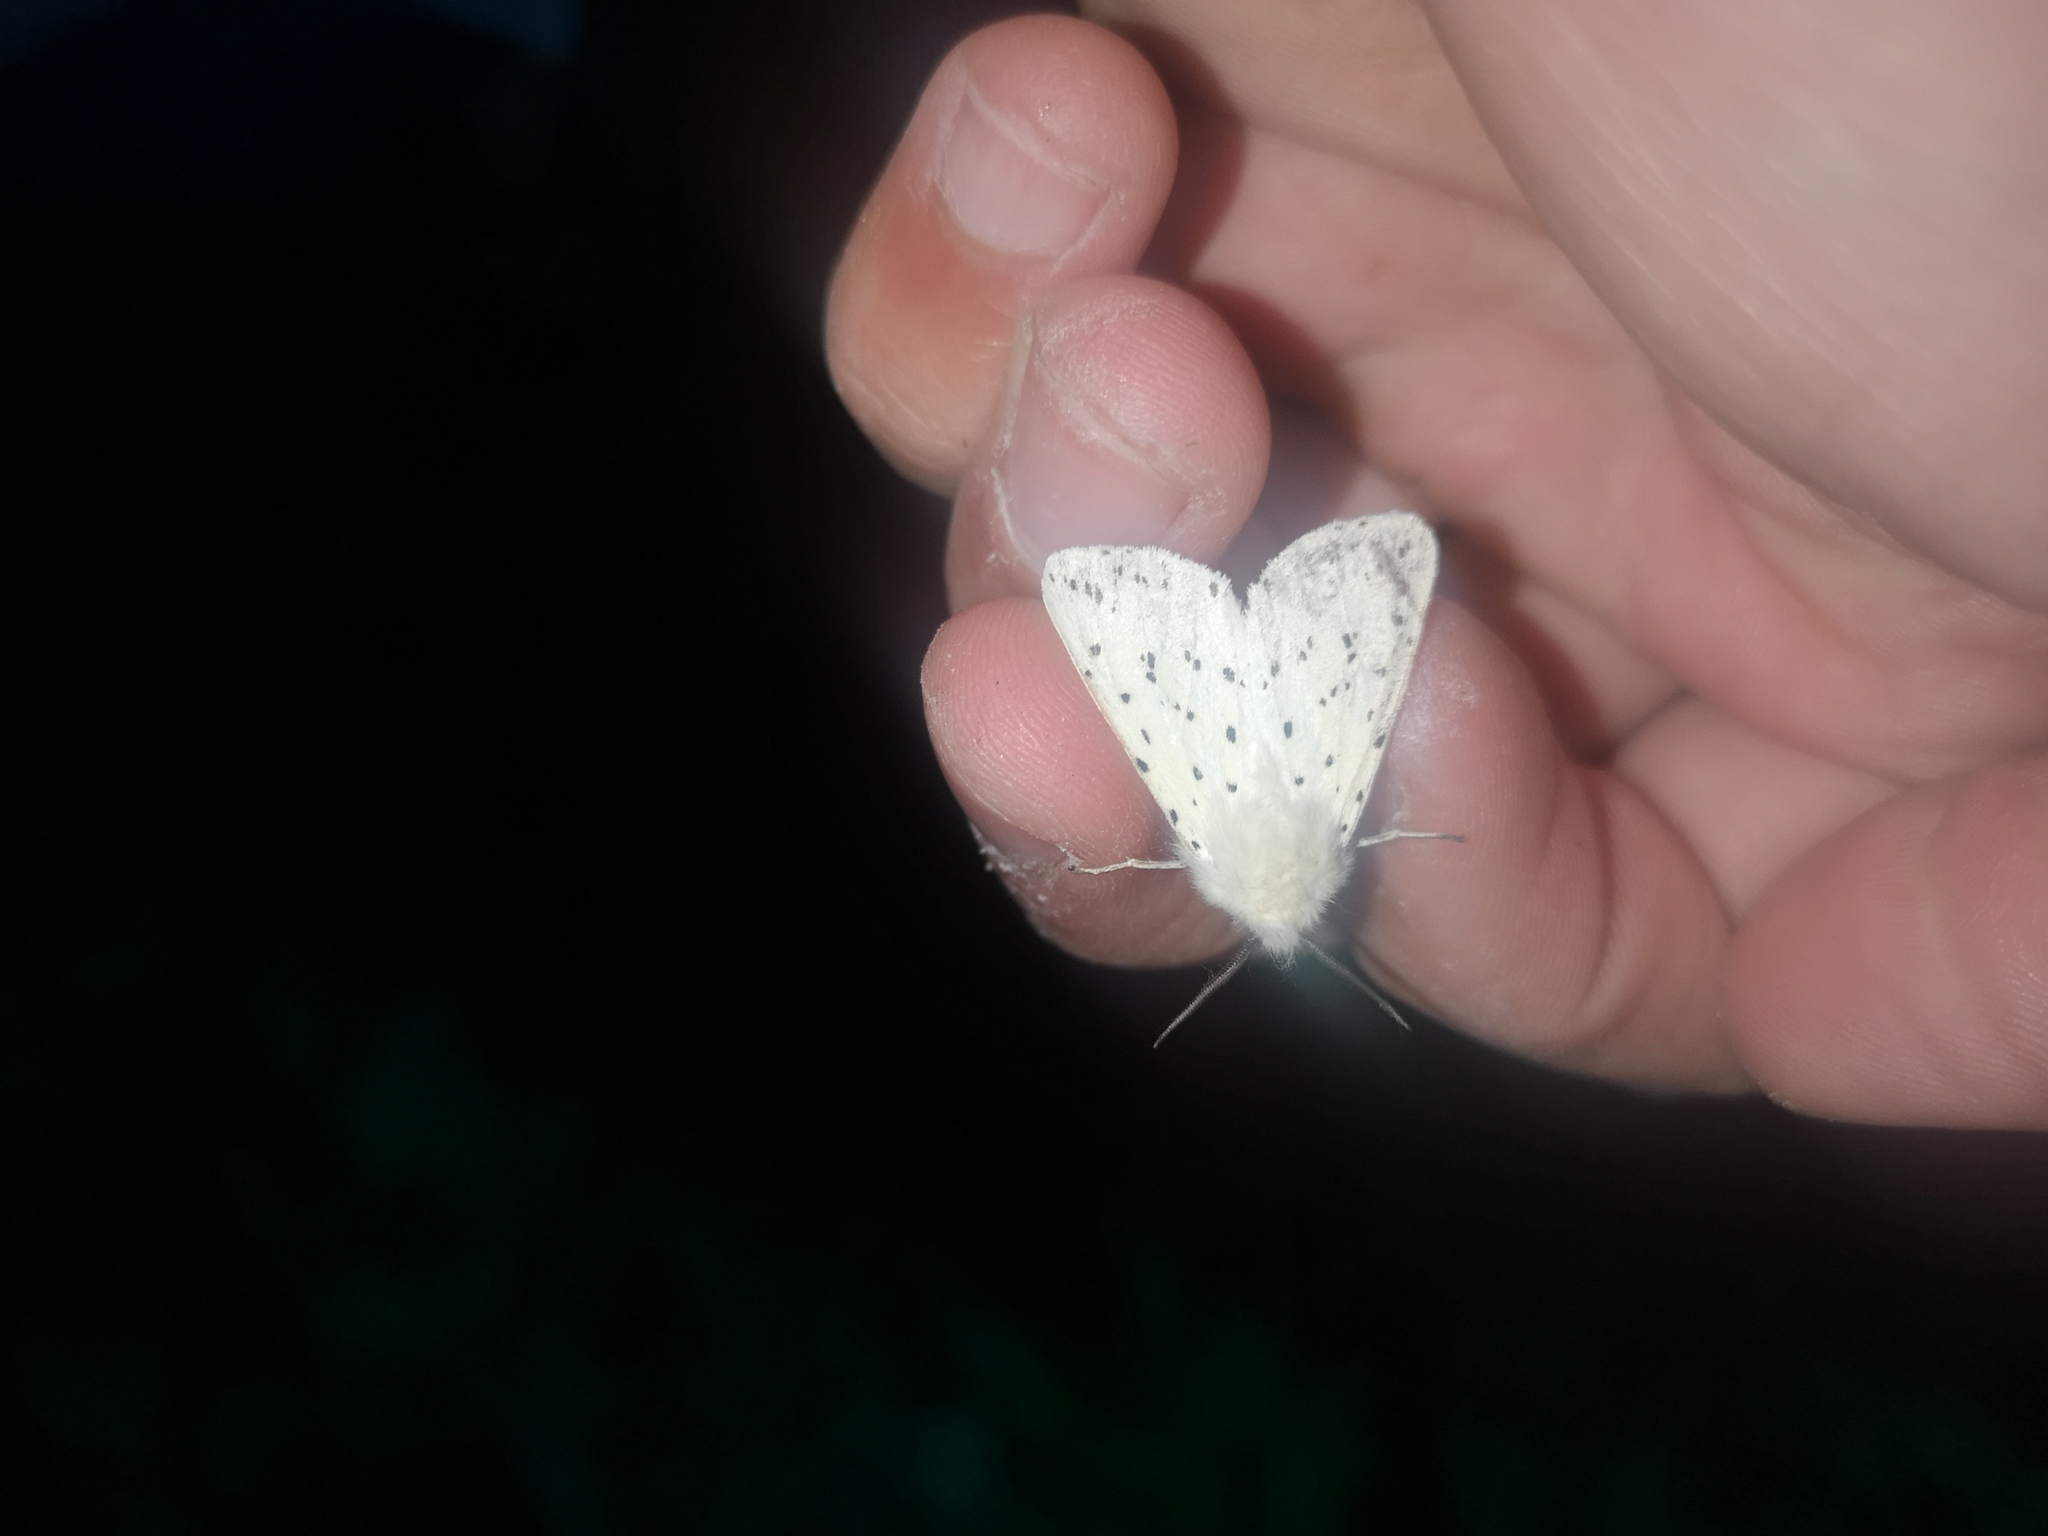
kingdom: Animalia
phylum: Arthropoda
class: Insecta
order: Lepidoptera
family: Erebidae
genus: Spilosoma
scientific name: Spilosoma lubricipeda
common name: White ermine
